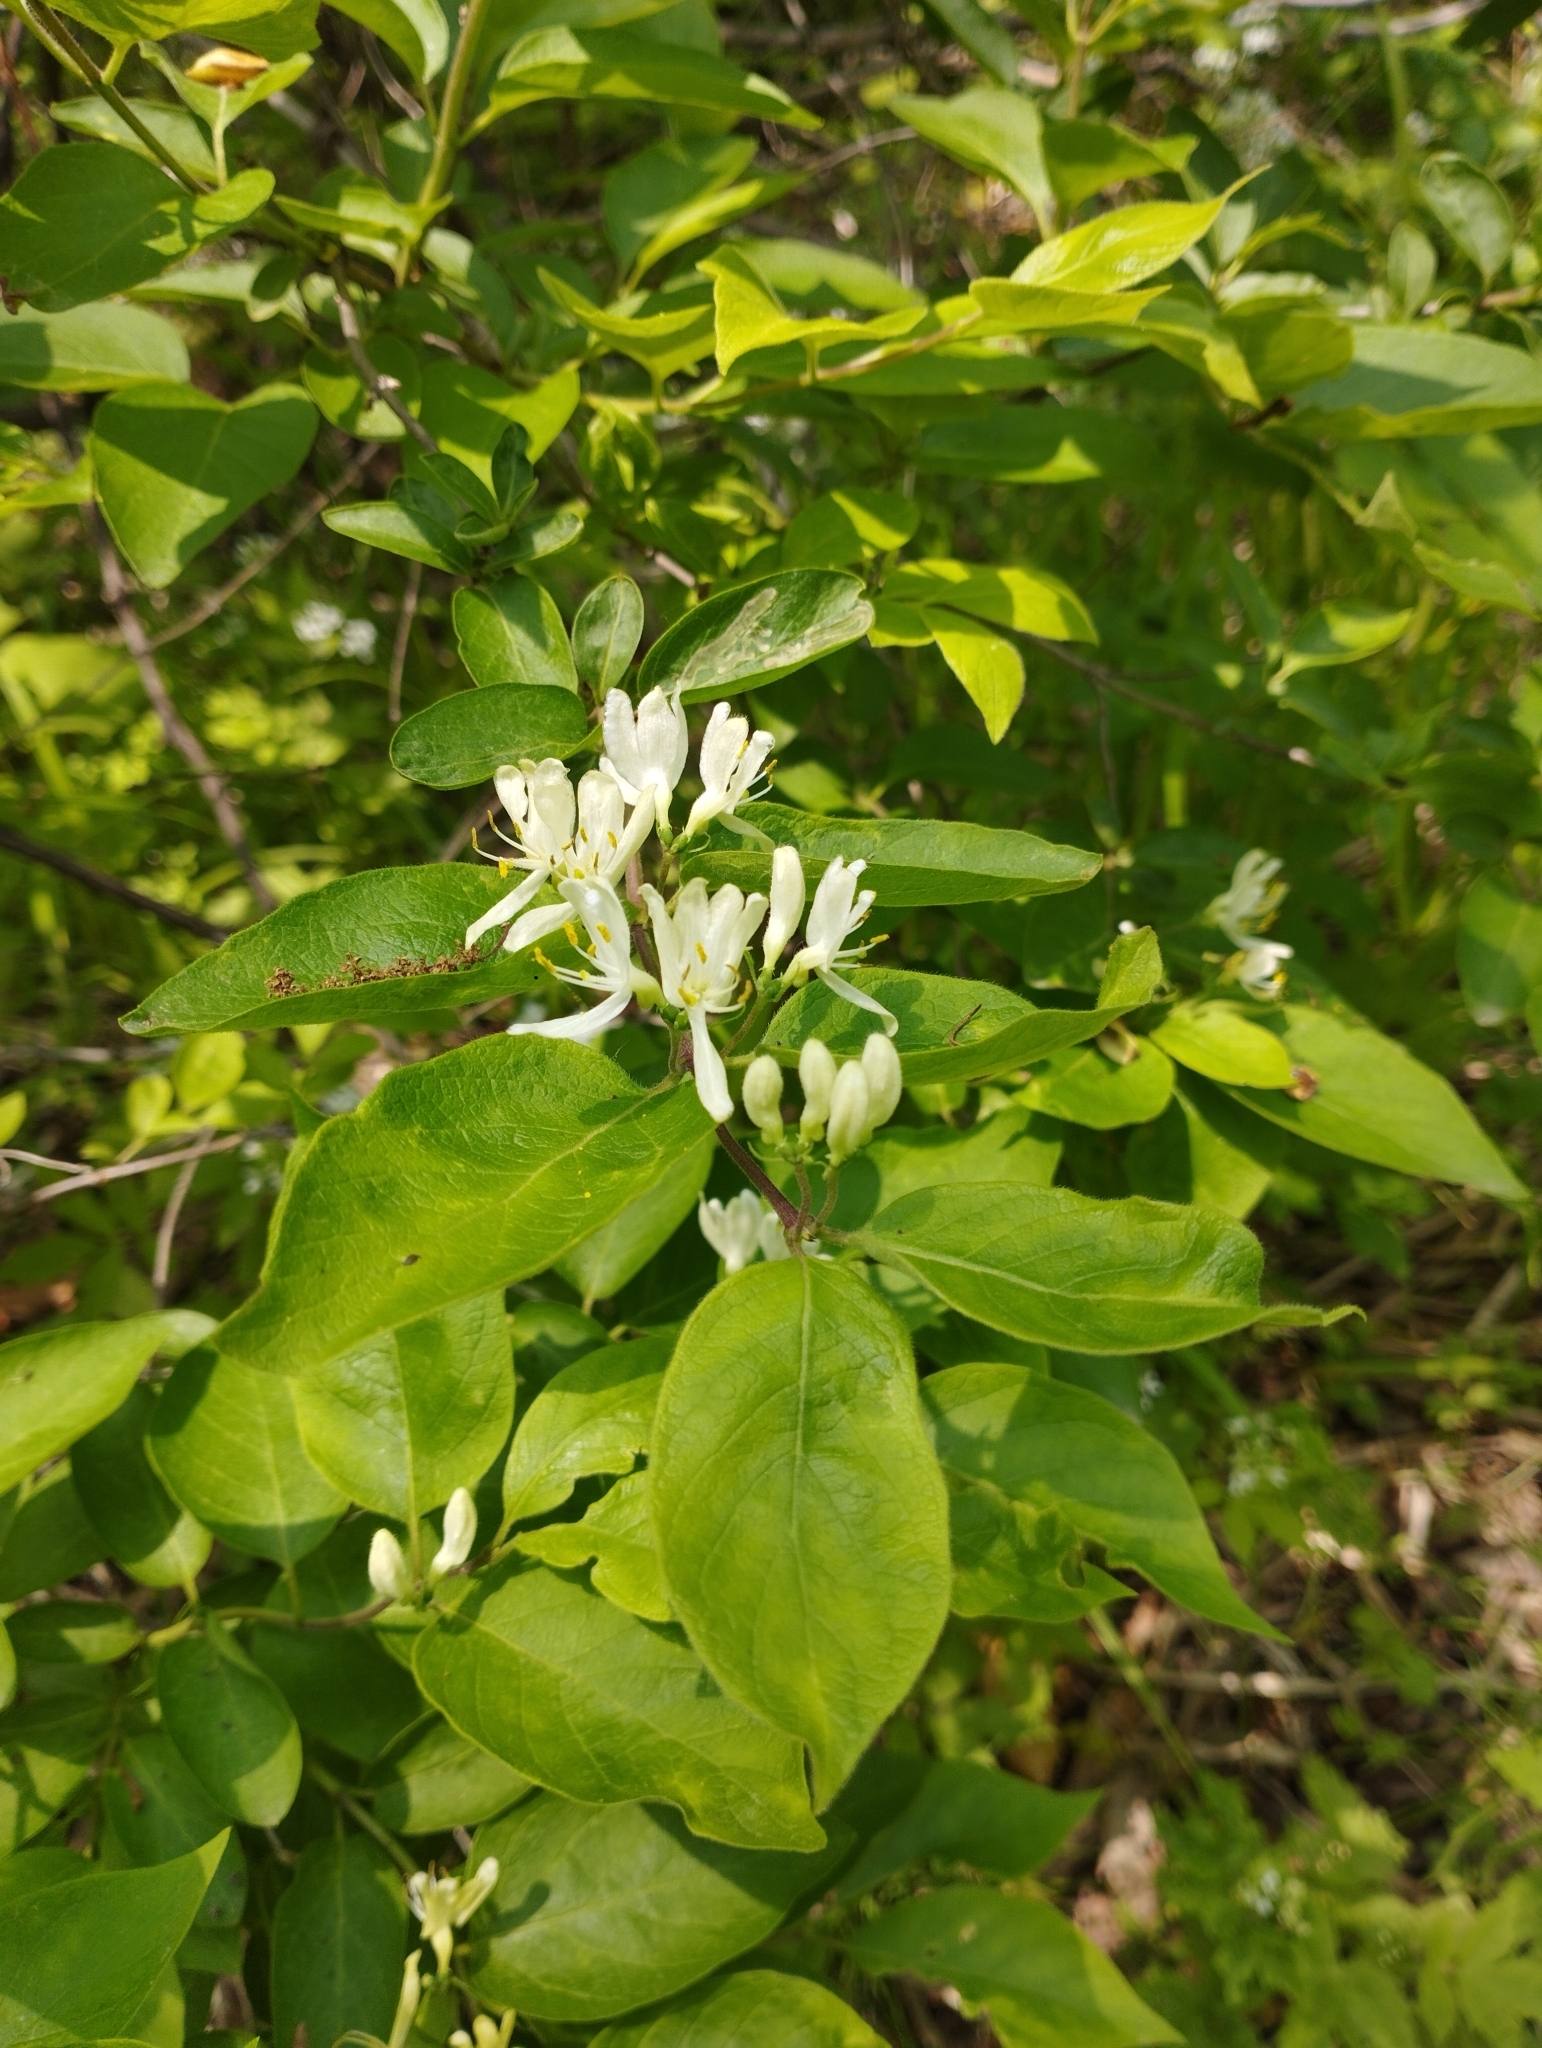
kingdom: Plantae
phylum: Tracheophyta
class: Magnoliopsida
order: Dipsacales
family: Caprifoliaceae
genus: Lonicera
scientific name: Lonicera ruprechtiana
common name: Manchurian honeysuckle
